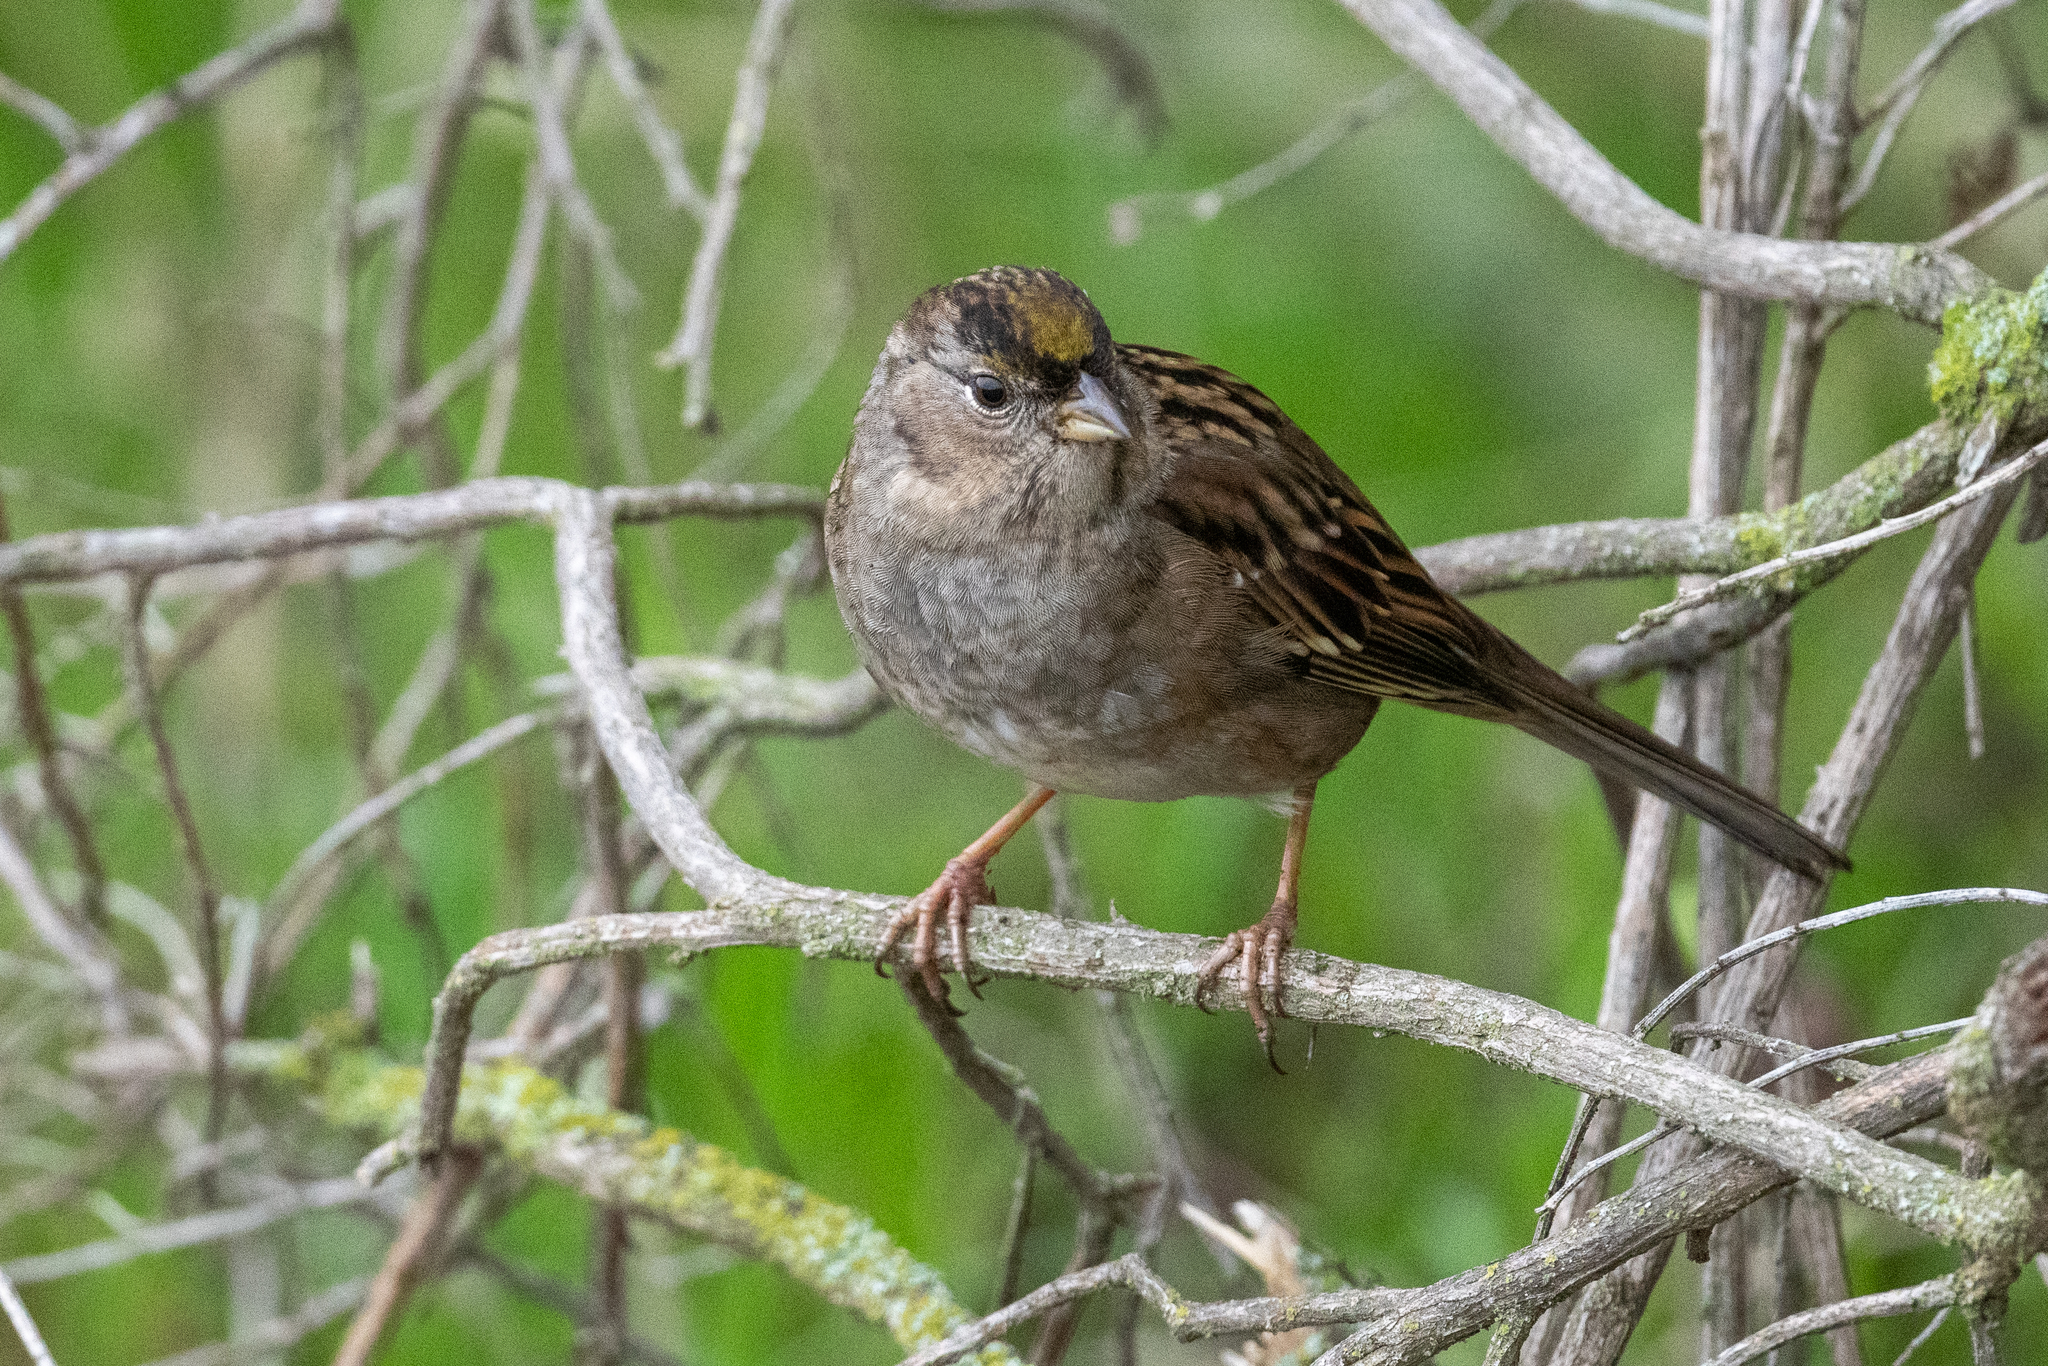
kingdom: Animalia
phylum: Chordata
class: Aves
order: Passeriformes
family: Passerellidae
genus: Zonotrichia
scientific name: Zonotrichia atricapilla
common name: Golden-crowned sparrow
